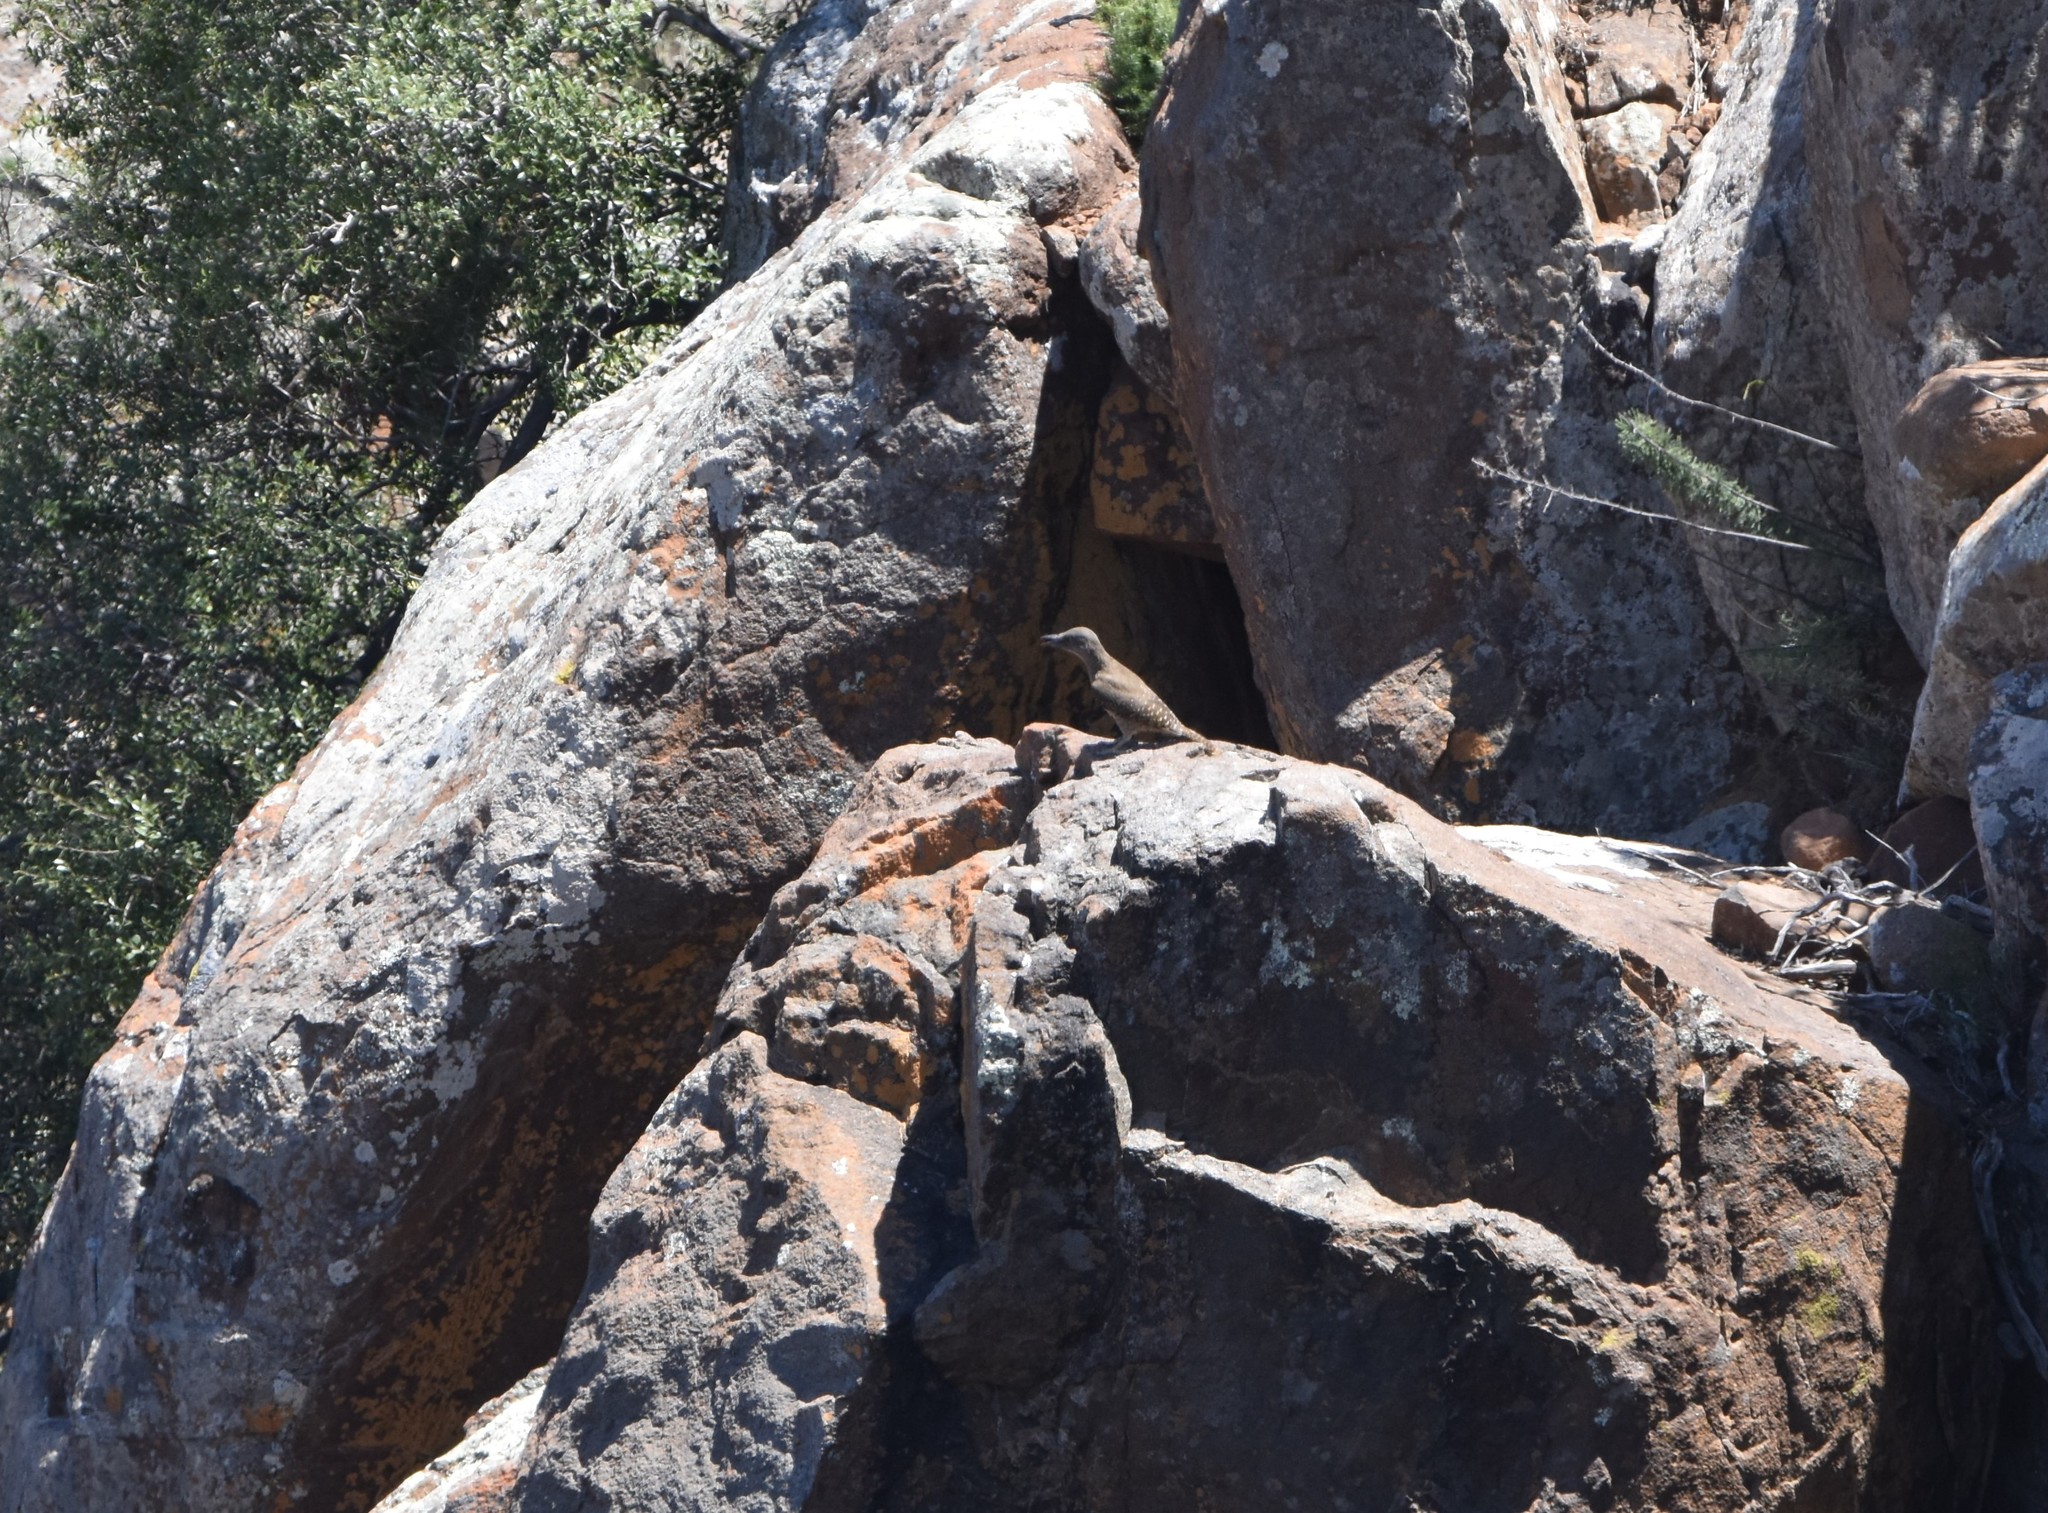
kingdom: Animalia
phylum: Chordata
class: Aves
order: Piciformes
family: Picidae
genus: Geocolaptes
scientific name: Geocolaptes olivaceus
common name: Ground woodpecker
